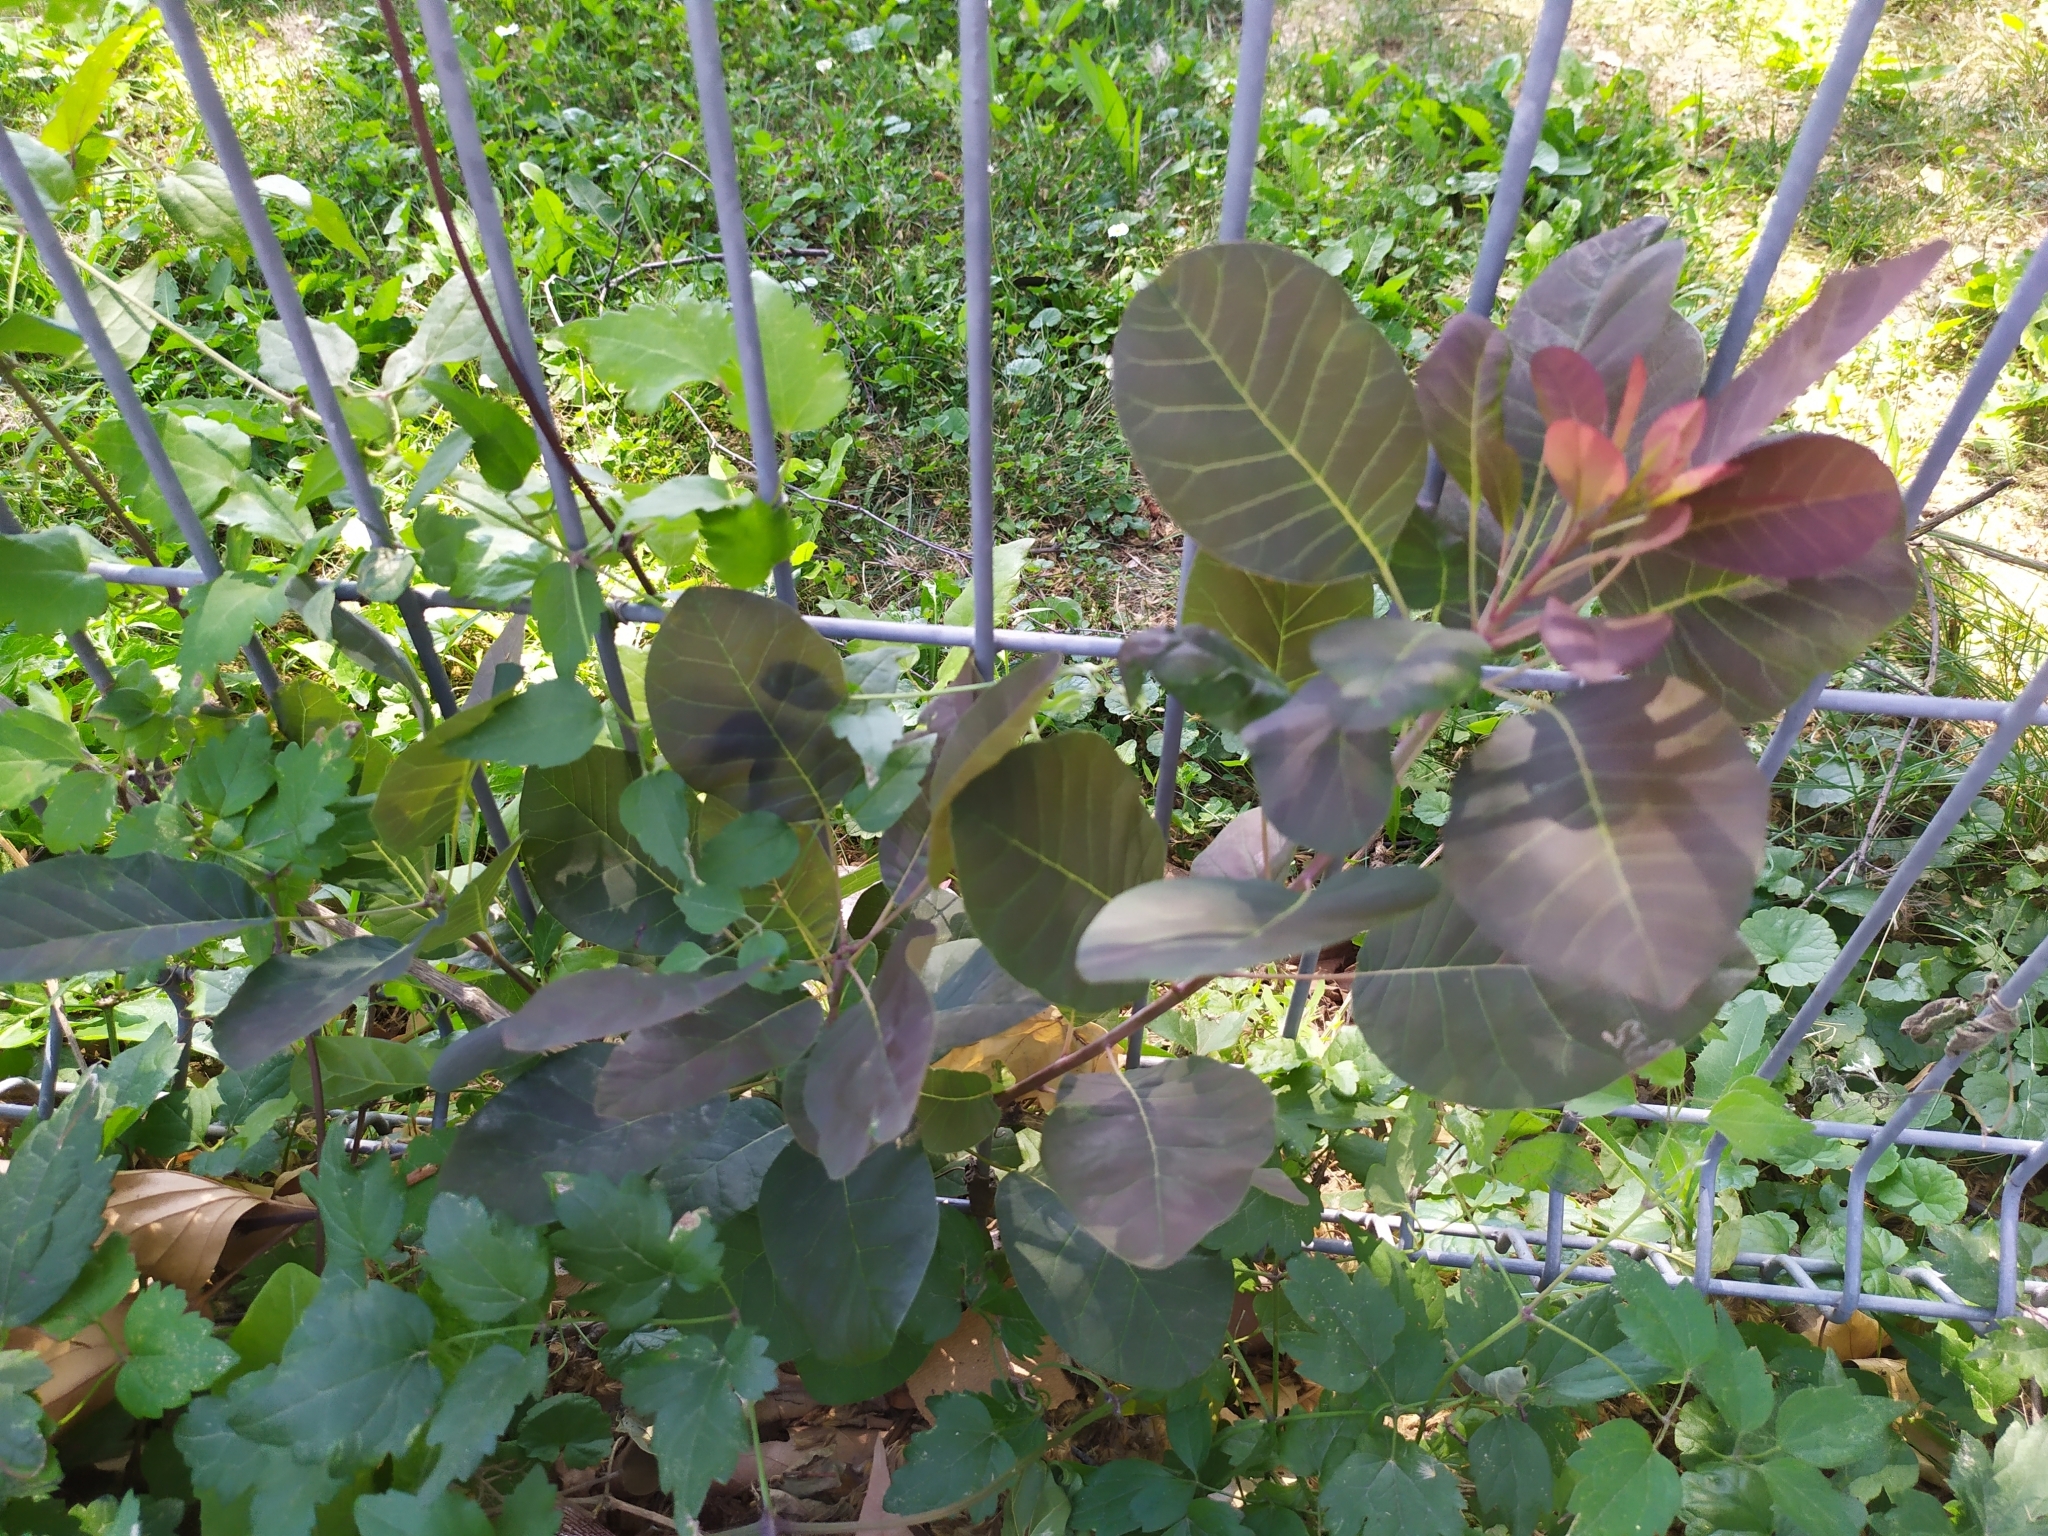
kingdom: Plantae
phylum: Tracheophyta
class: Magnoliopsida
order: Sapindales
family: Anacardiaceae
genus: Cotinus
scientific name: Cotinus coggygria
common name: Smoke-tree
